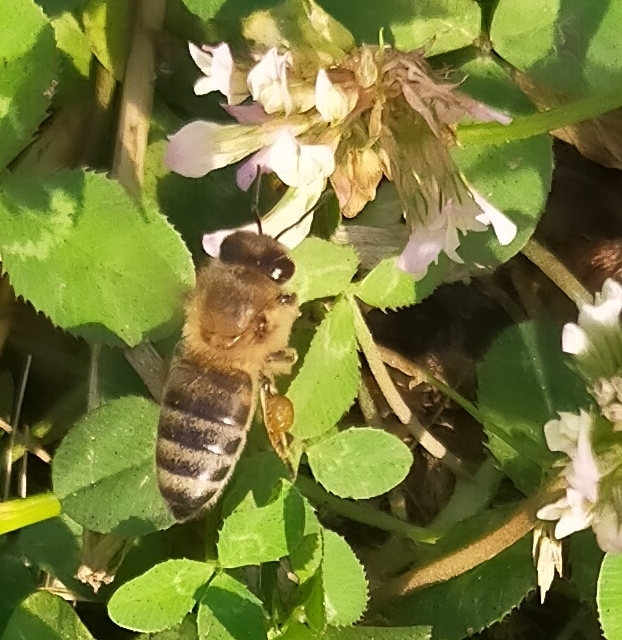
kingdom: Animalia
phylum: Arthropoda
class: Insecta
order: Hymenoptera
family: Apidae
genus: Apis
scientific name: Apis mellifera
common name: Honey bee
